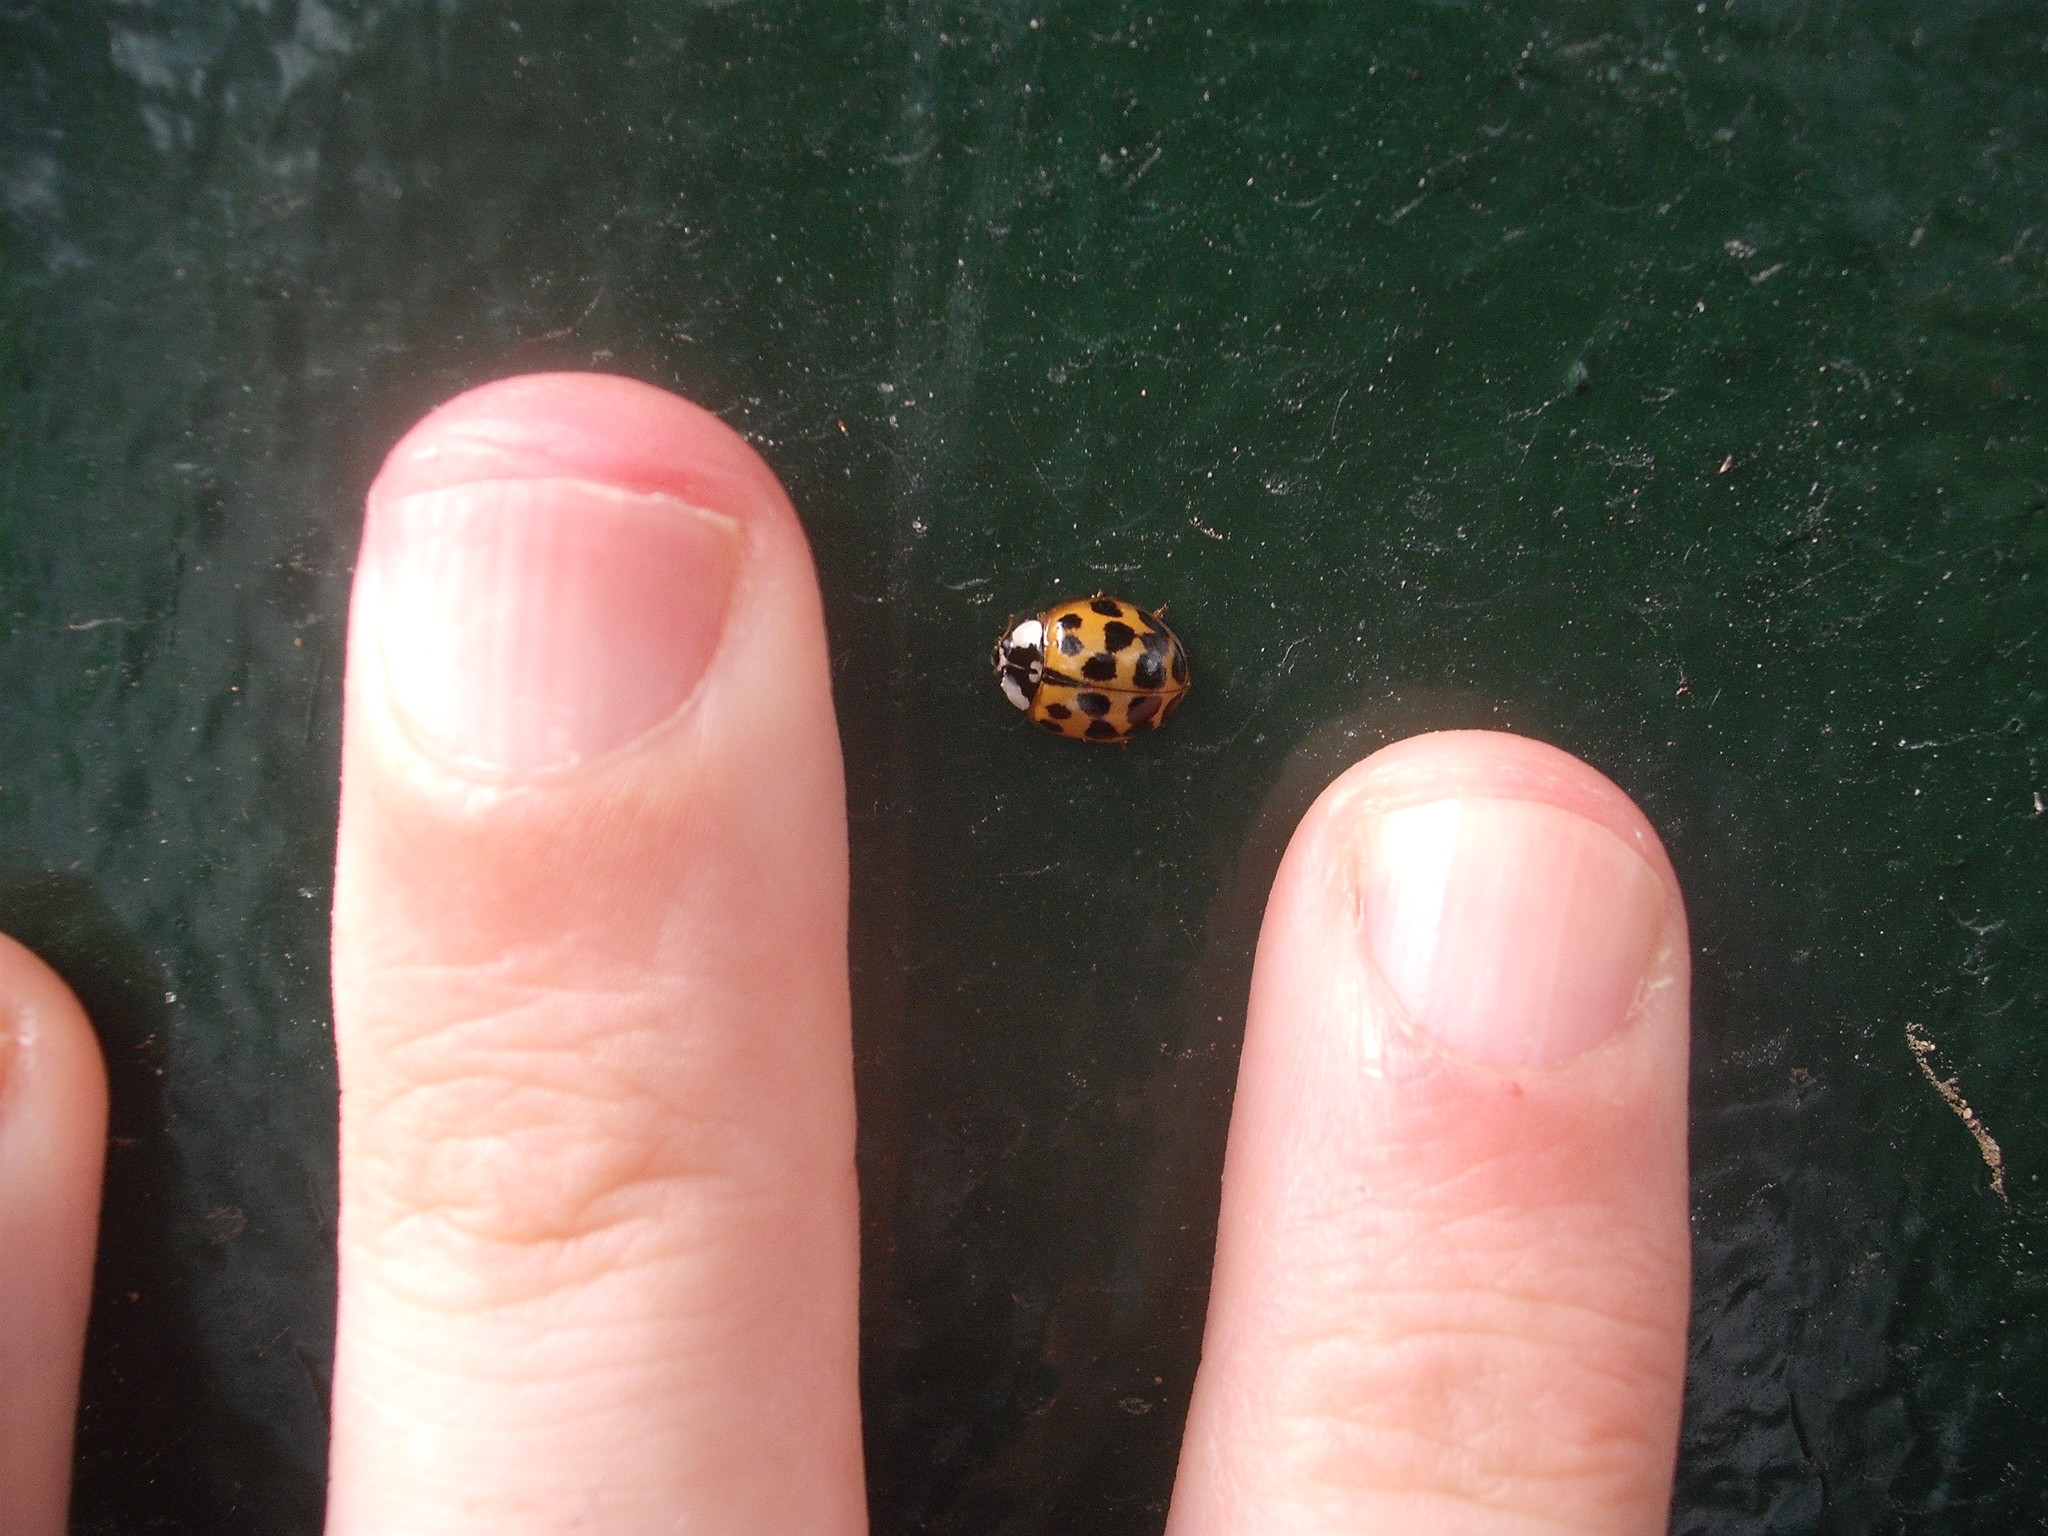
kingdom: Animalia
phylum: Arthropoda
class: Insecta
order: Coleoptera
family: Coccinellidae
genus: Harmonia
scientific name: Harmonia axyridis
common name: Harlequin ladybird
